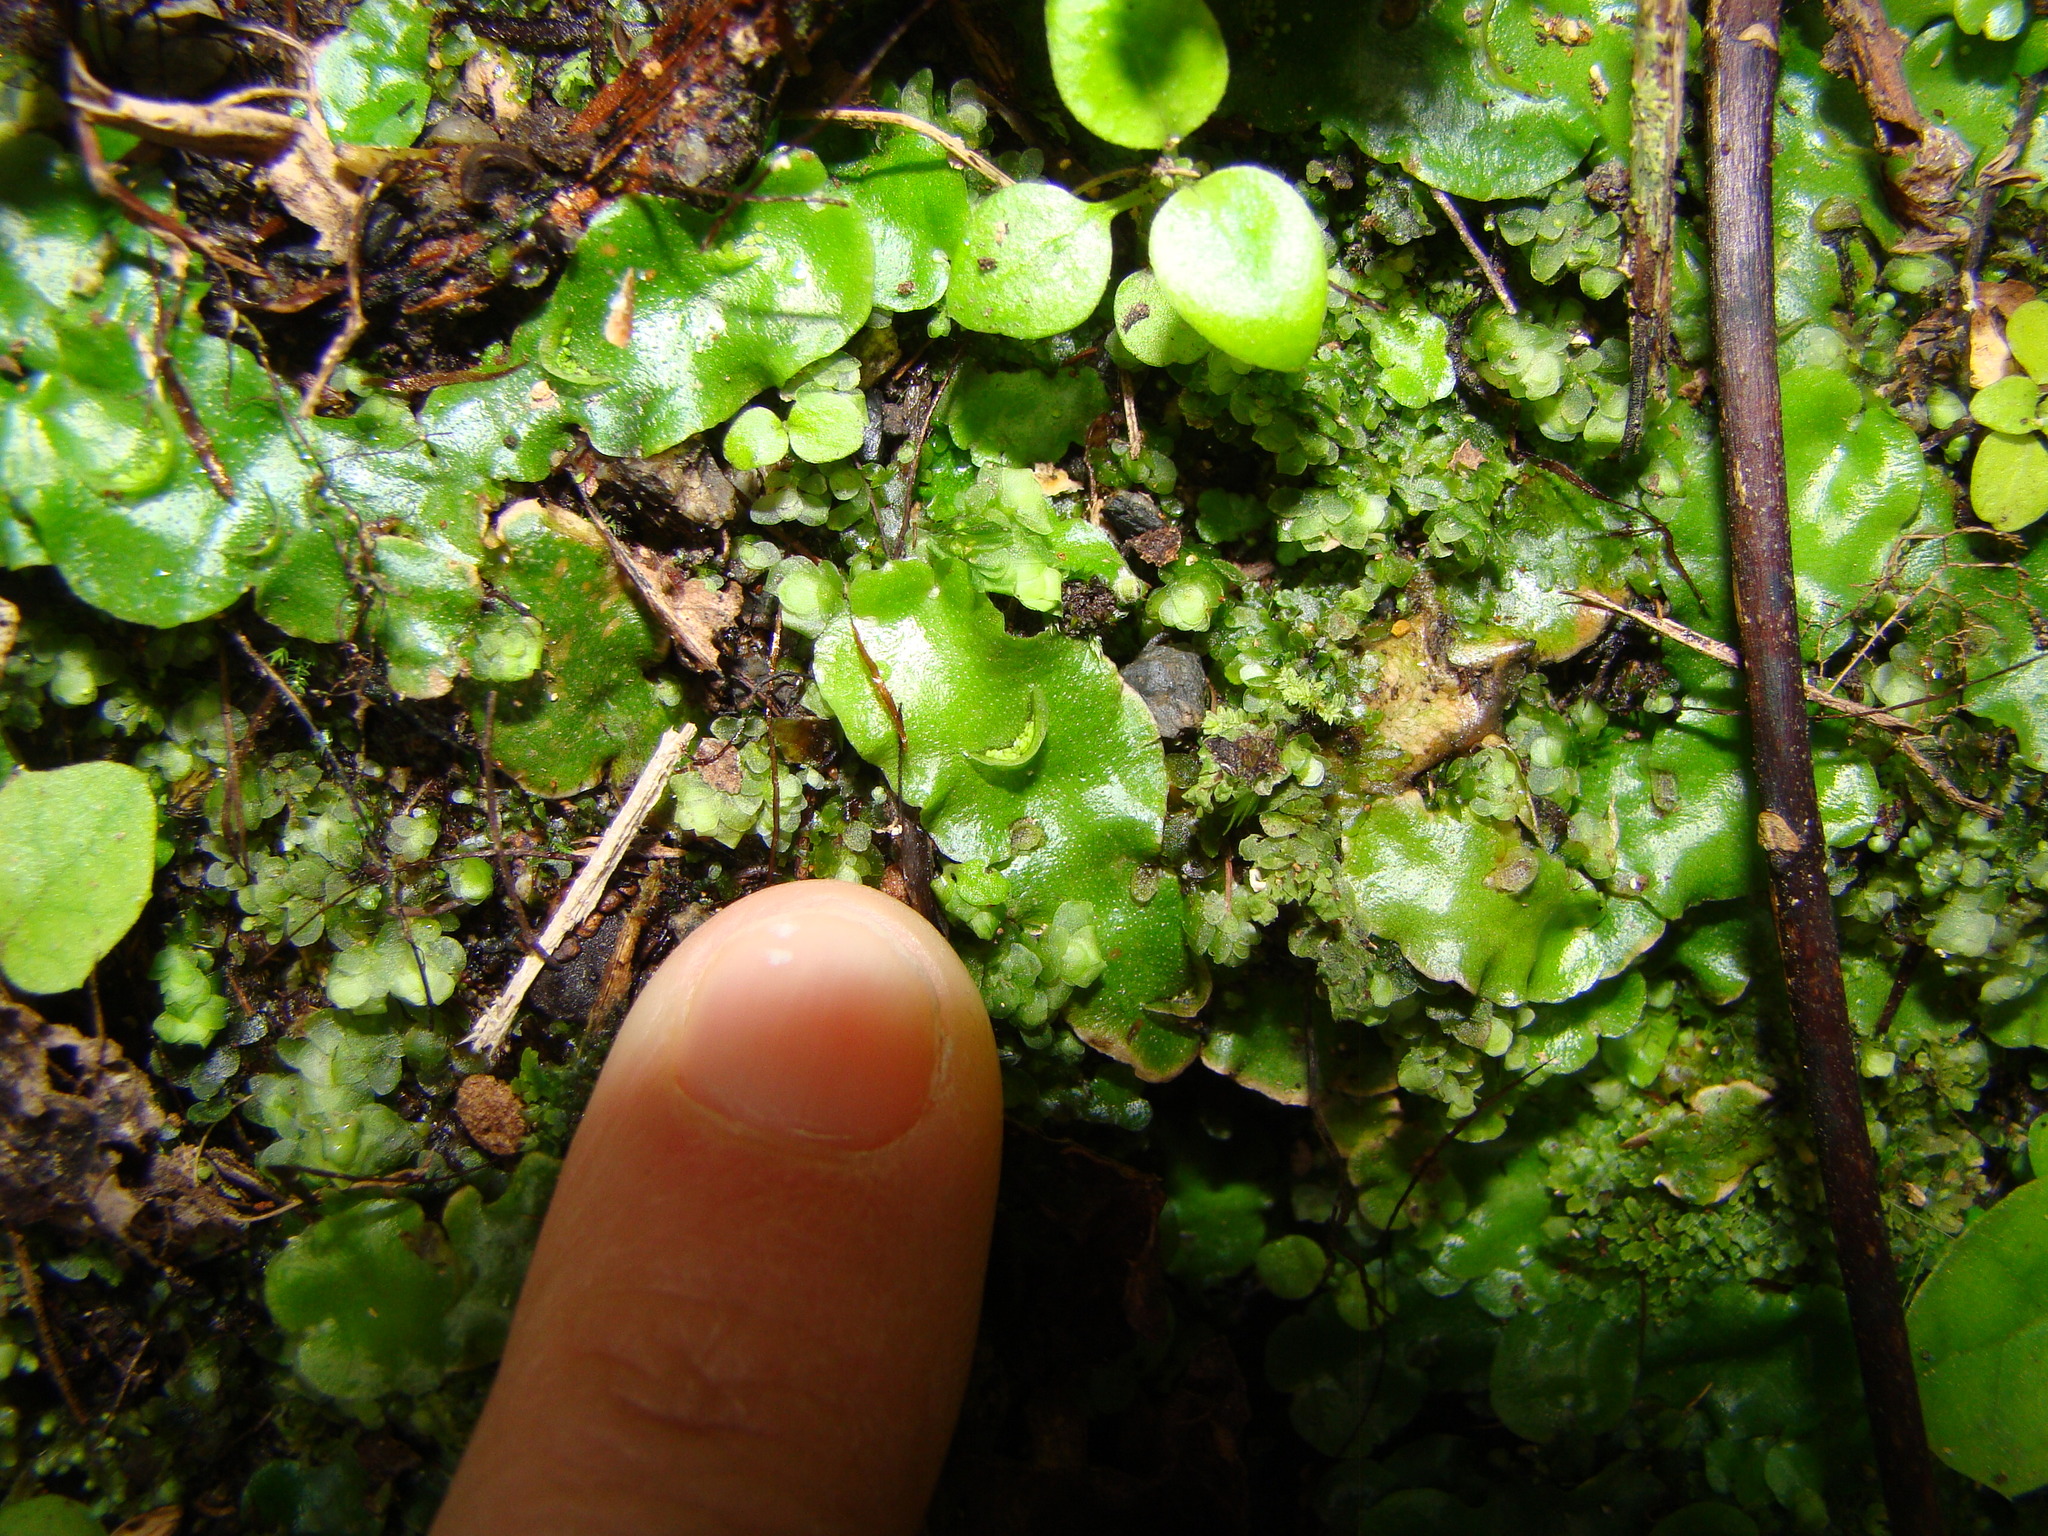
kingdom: Plantae
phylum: Marchantiophyta
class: Marchantiopsida
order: Lunulariales
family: Lunulariaceae
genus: Lunularia
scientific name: Lunularia cruciata
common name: Crescent-cup liverwort
